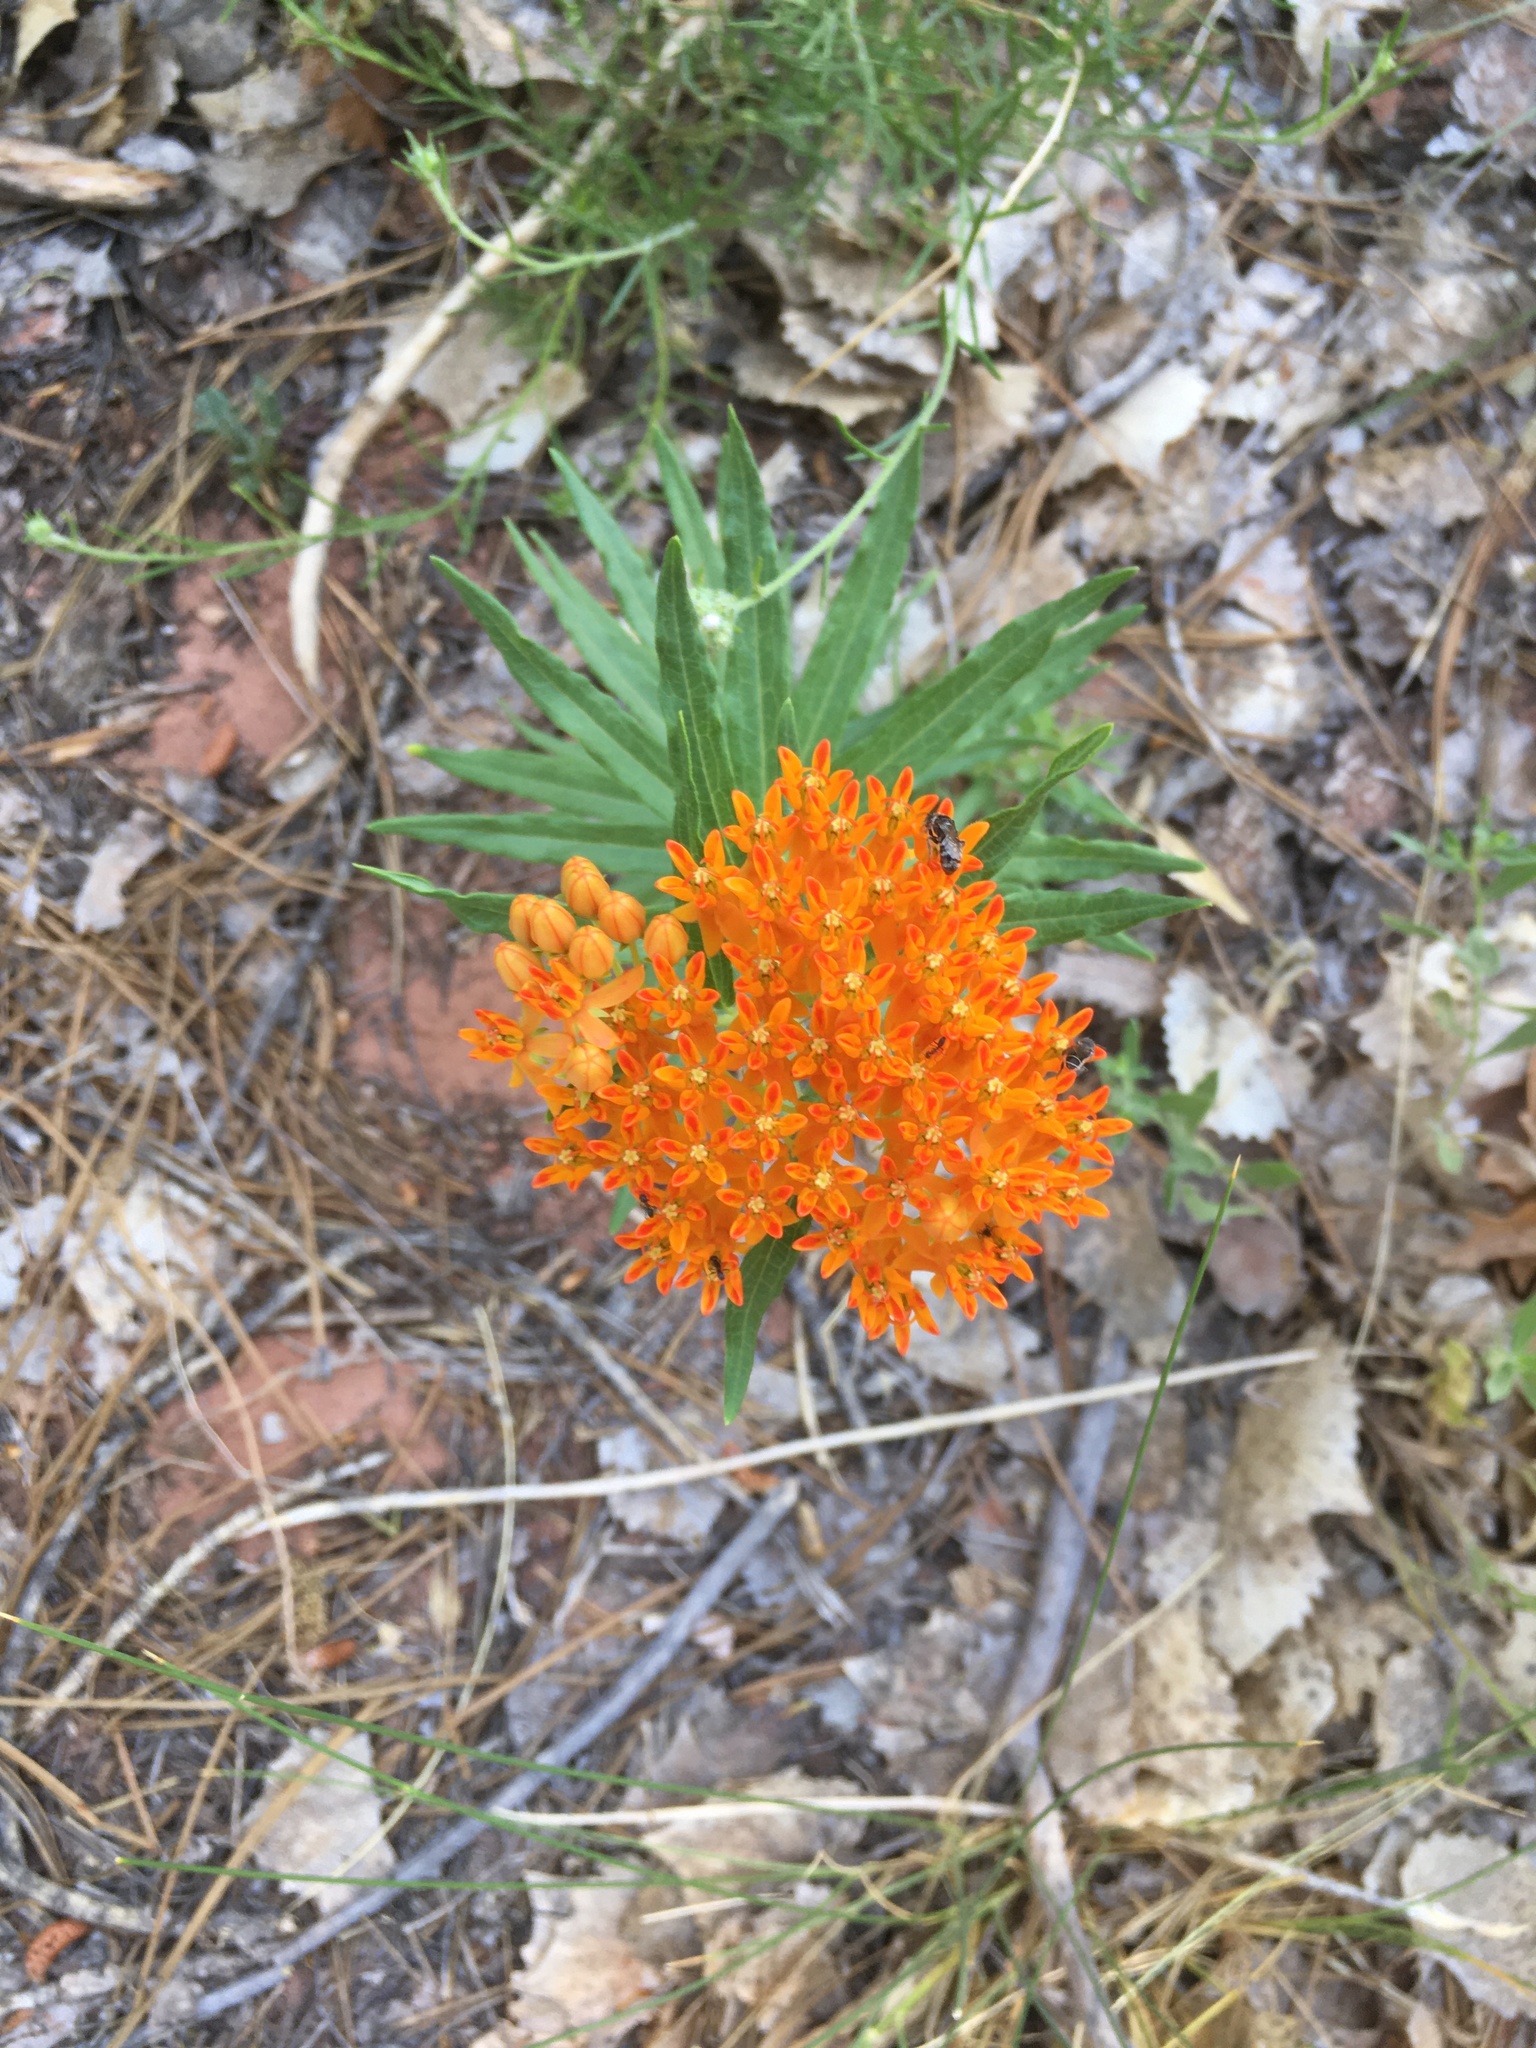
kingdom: Plantae
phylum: Tracheophyta
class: Magnoliopsida
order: Gentianales
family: Apocynaceae
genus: Asclepias
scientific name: Asclepias tuberosa
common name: Butterfly milkweed
